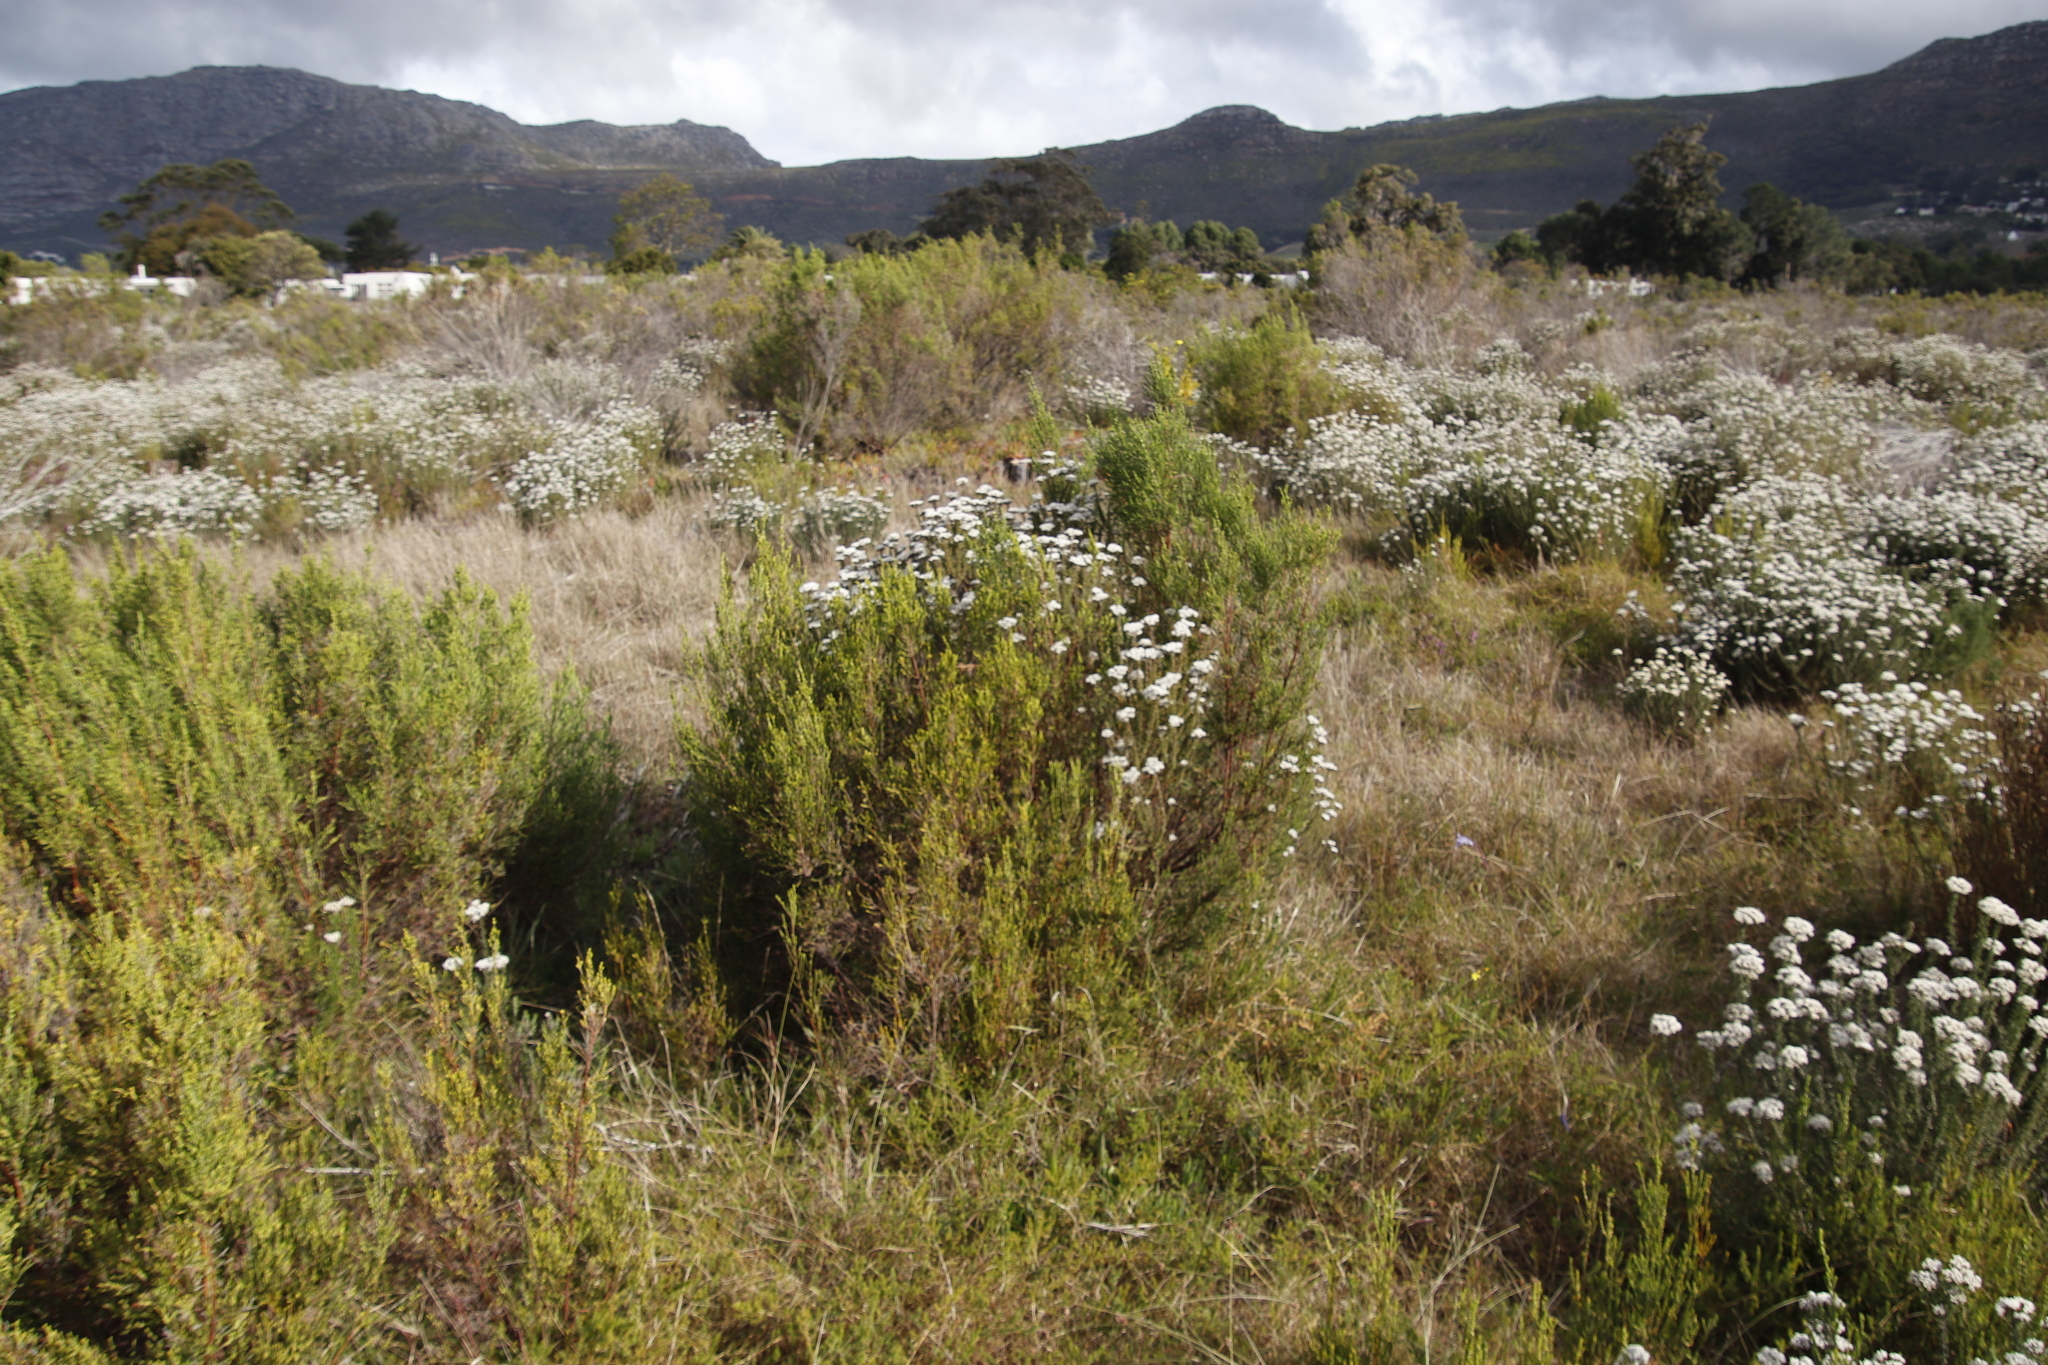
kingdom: Plantae
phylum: Tracheophyta
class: Magnoliopsida
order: Malvales
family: Thymelaeaceae
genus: Passerina
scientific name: Passerina corymbosa
